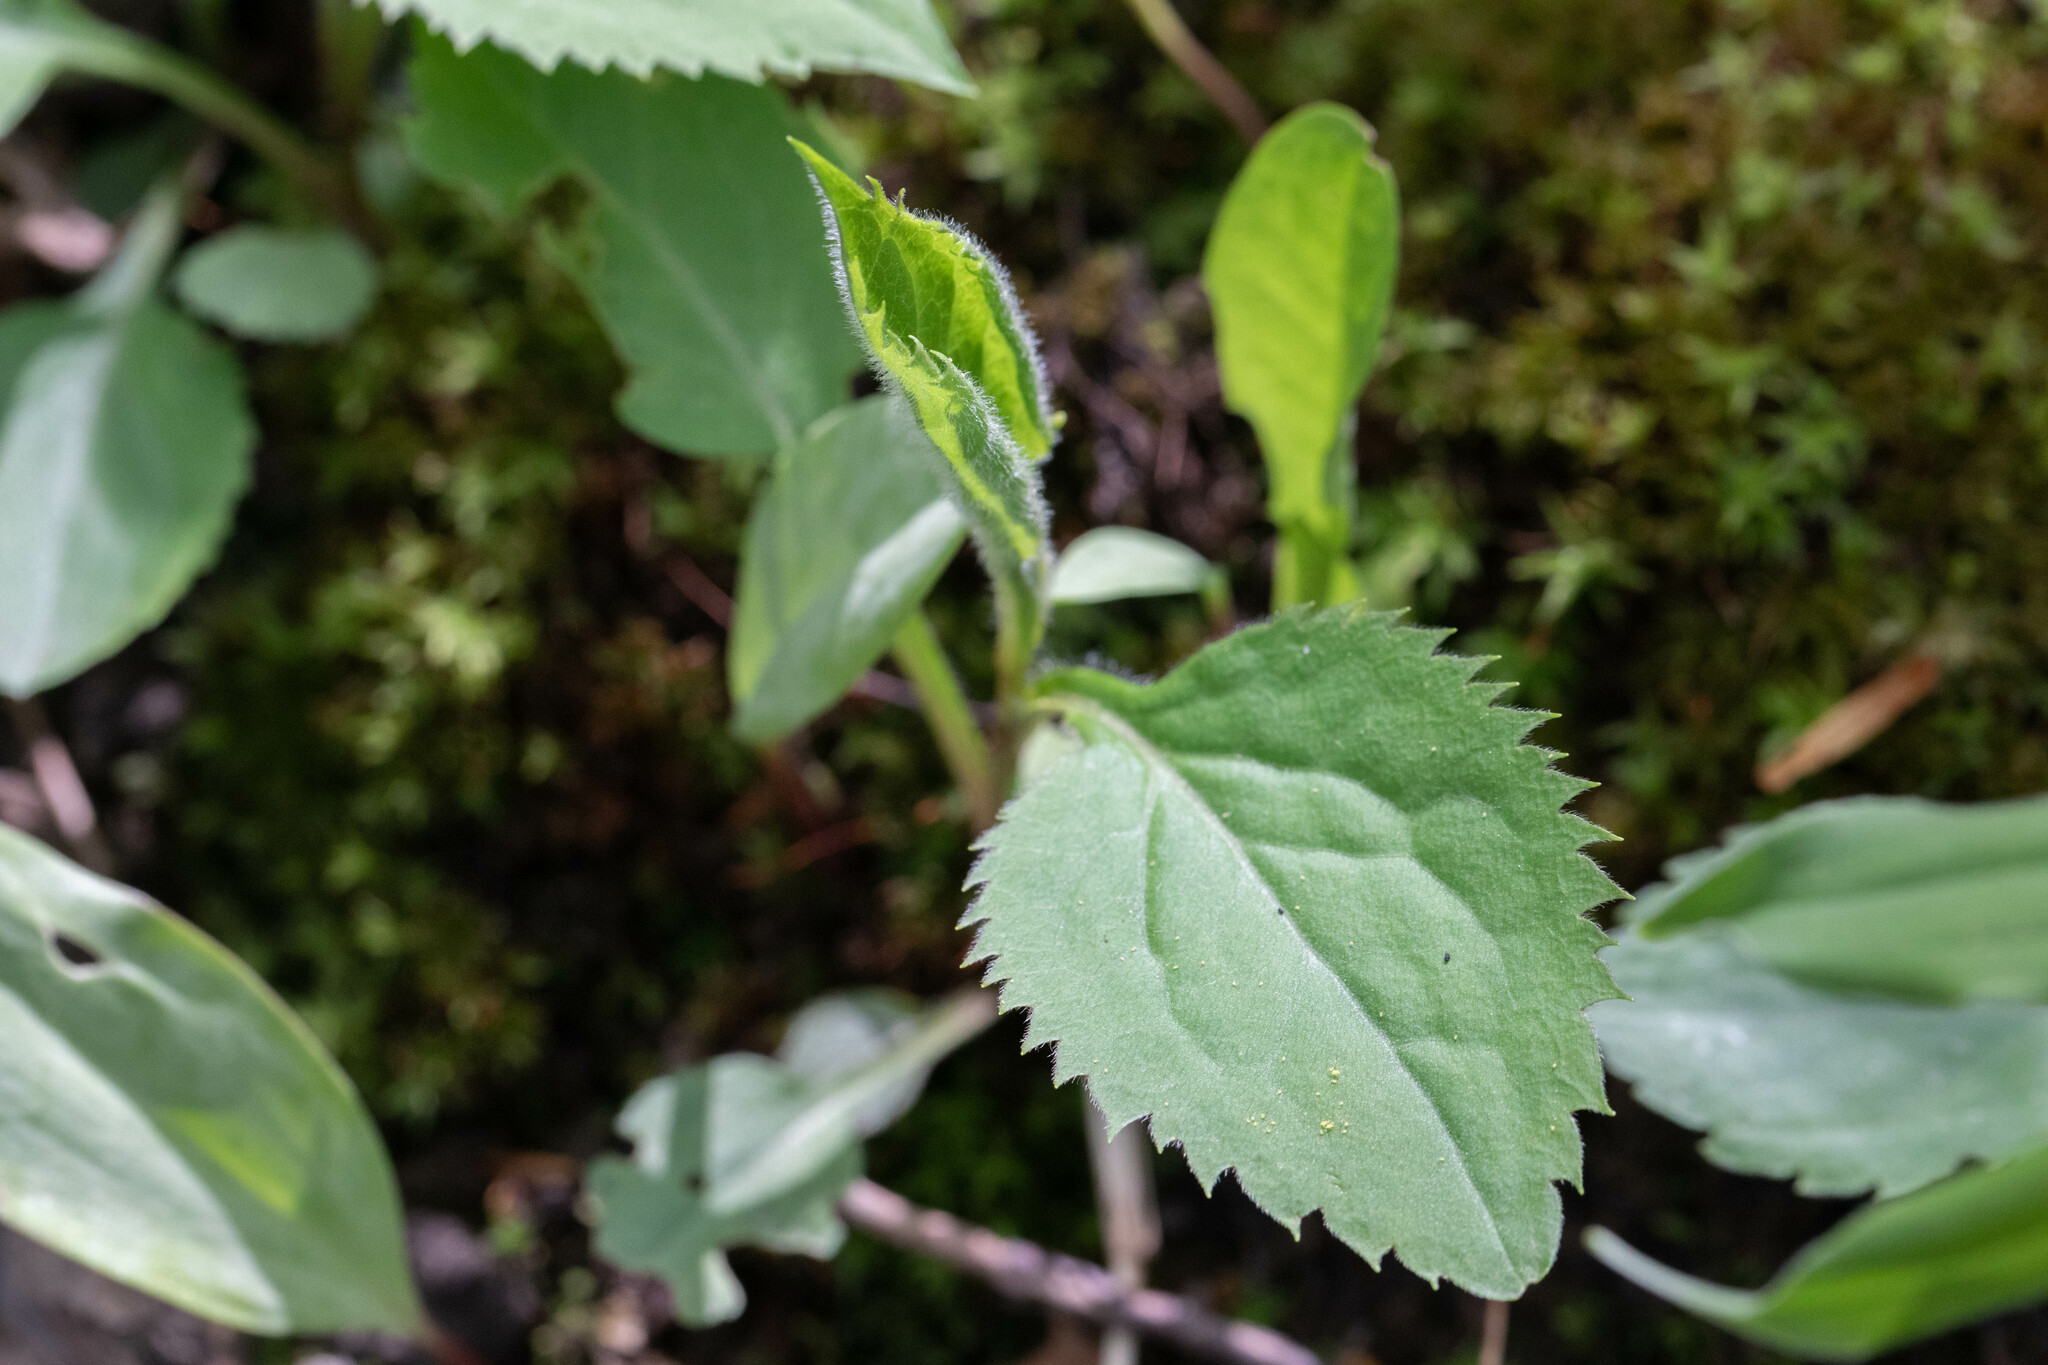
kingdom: Plantae
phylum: Tracheophyta
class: Magnoliopsida
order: Asterales
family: Asteraceae
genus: Solidago
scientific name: Solidago flexicaulis
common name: Zig-zag goldenrod
